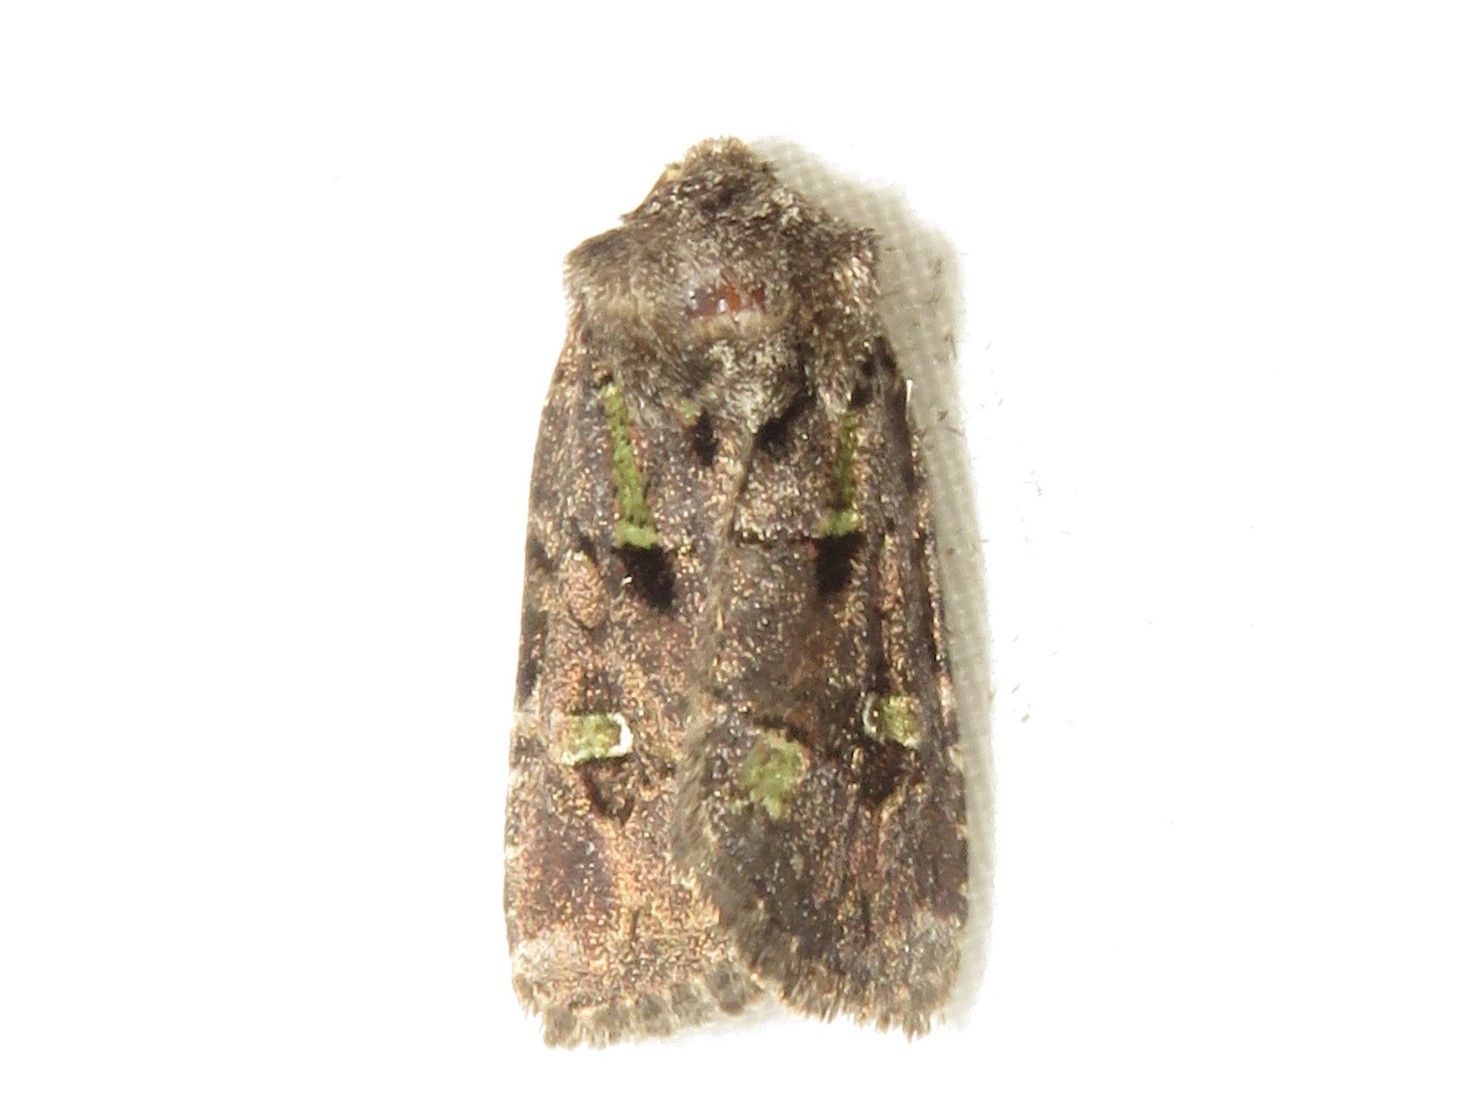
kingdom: Animalia
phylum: Arthropoda
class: Insecta
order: Lepidoptera
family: Noctuidae
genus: Lacinipolia
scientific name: Lacinipolia renigera
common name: Kidney-spotted minor
